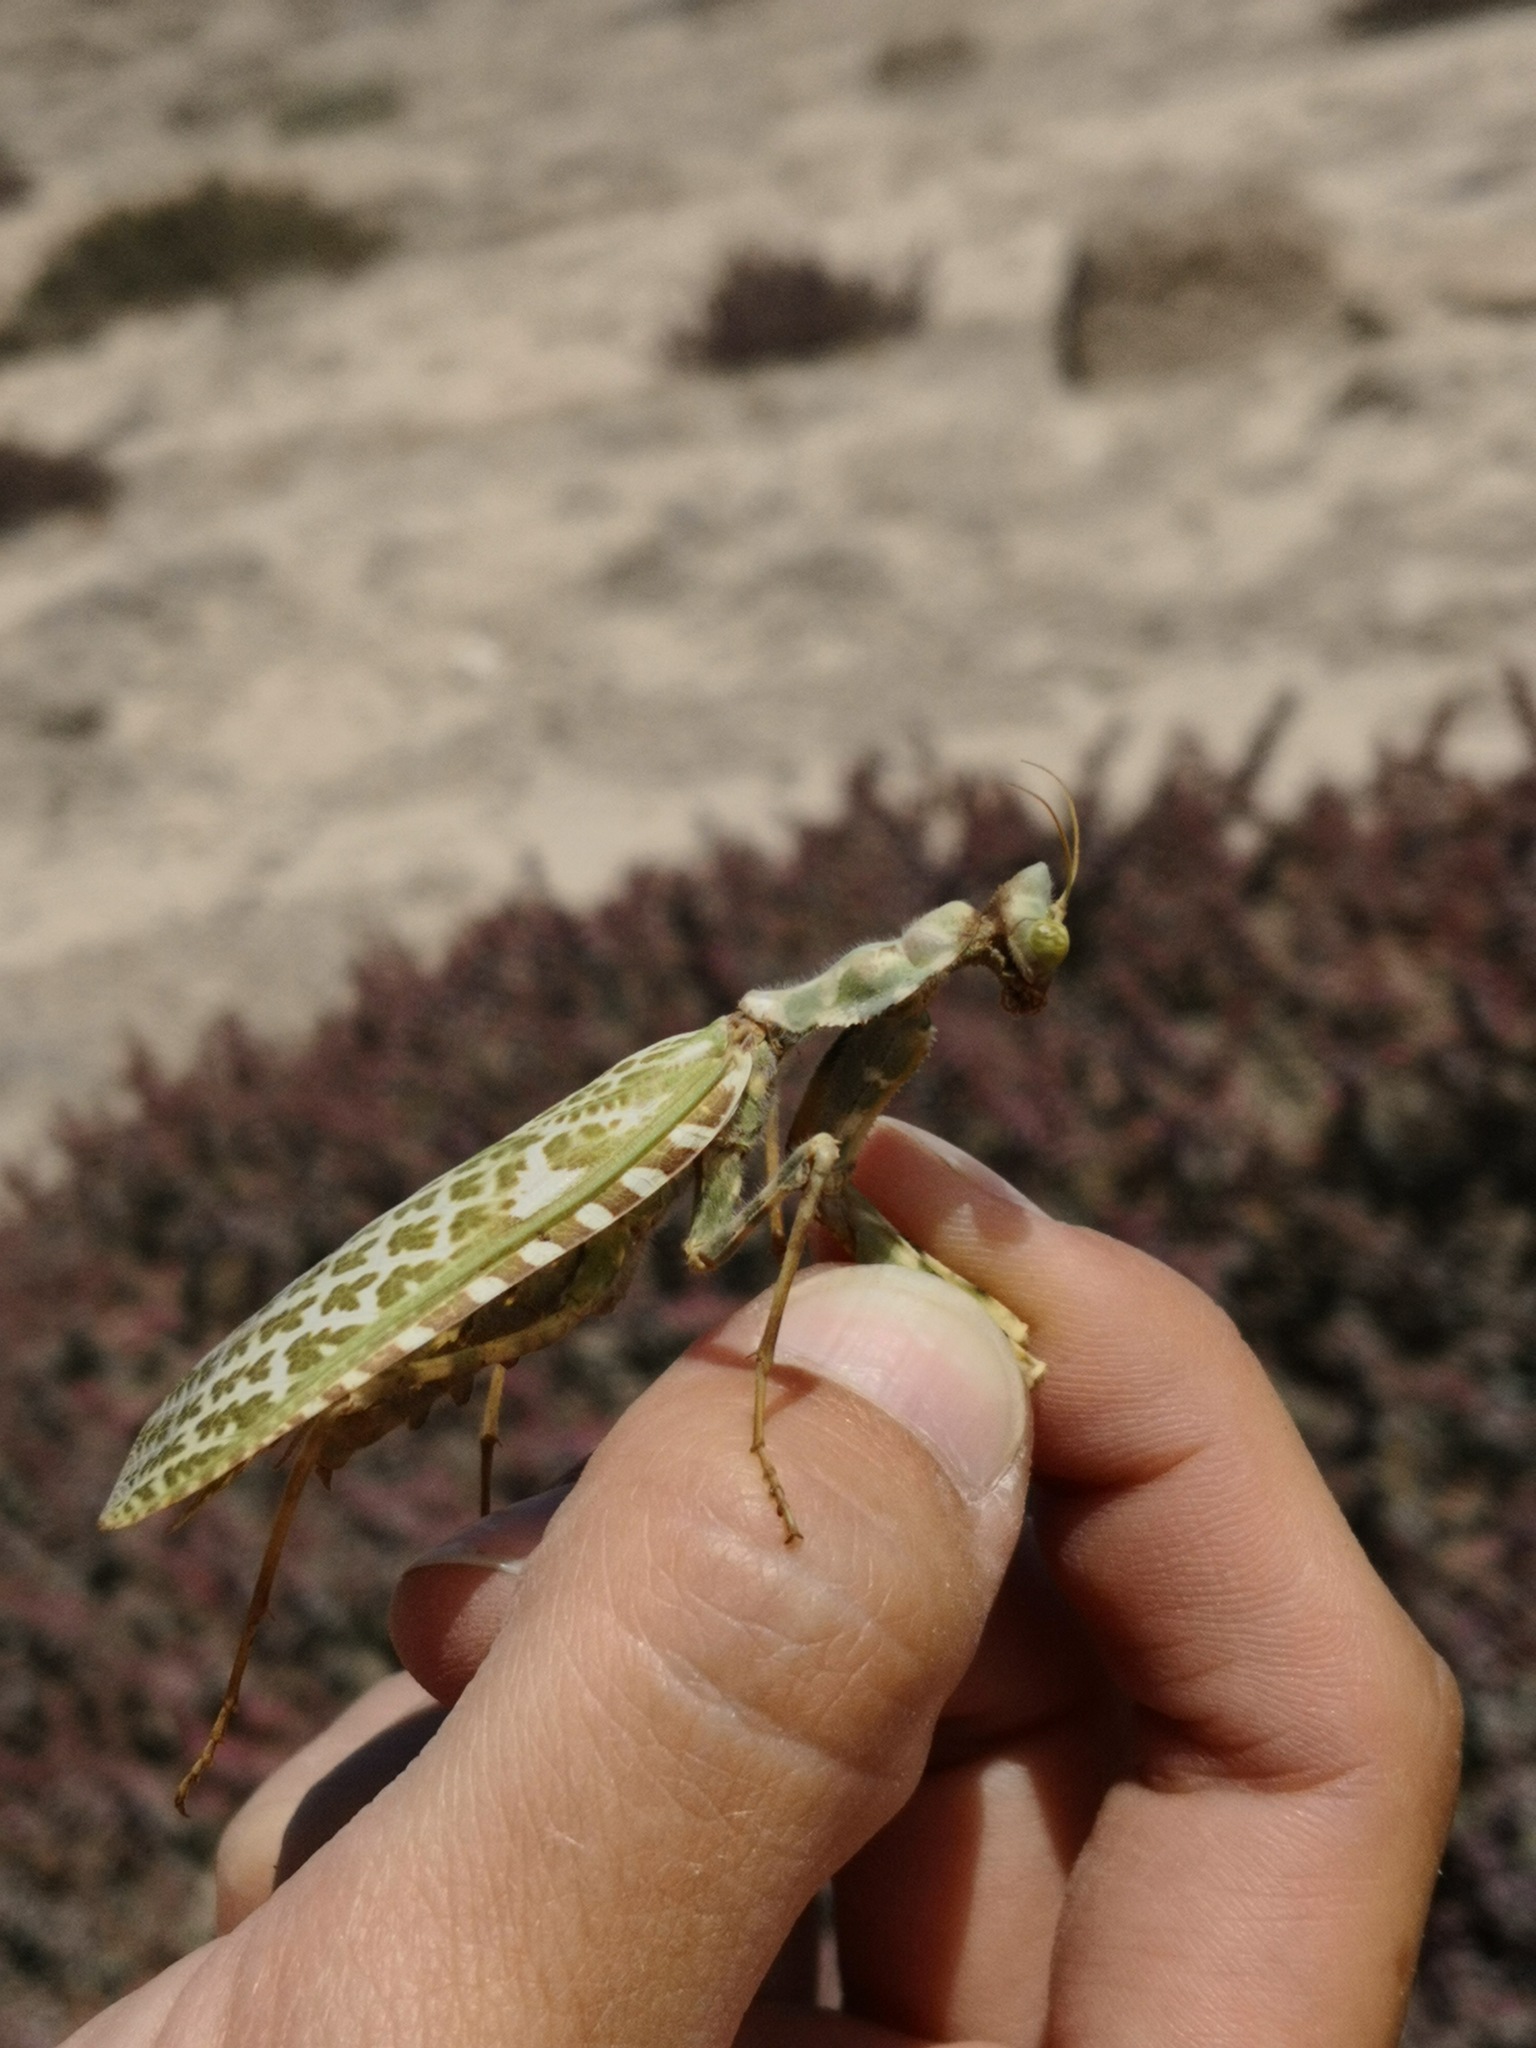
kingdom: Animalia
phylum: Arthropoda
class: Insecta
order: Mantodea
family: Empusidae
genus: Blepharopsis
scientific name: Blepharopsis mendica
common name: Devil's flower mantis
